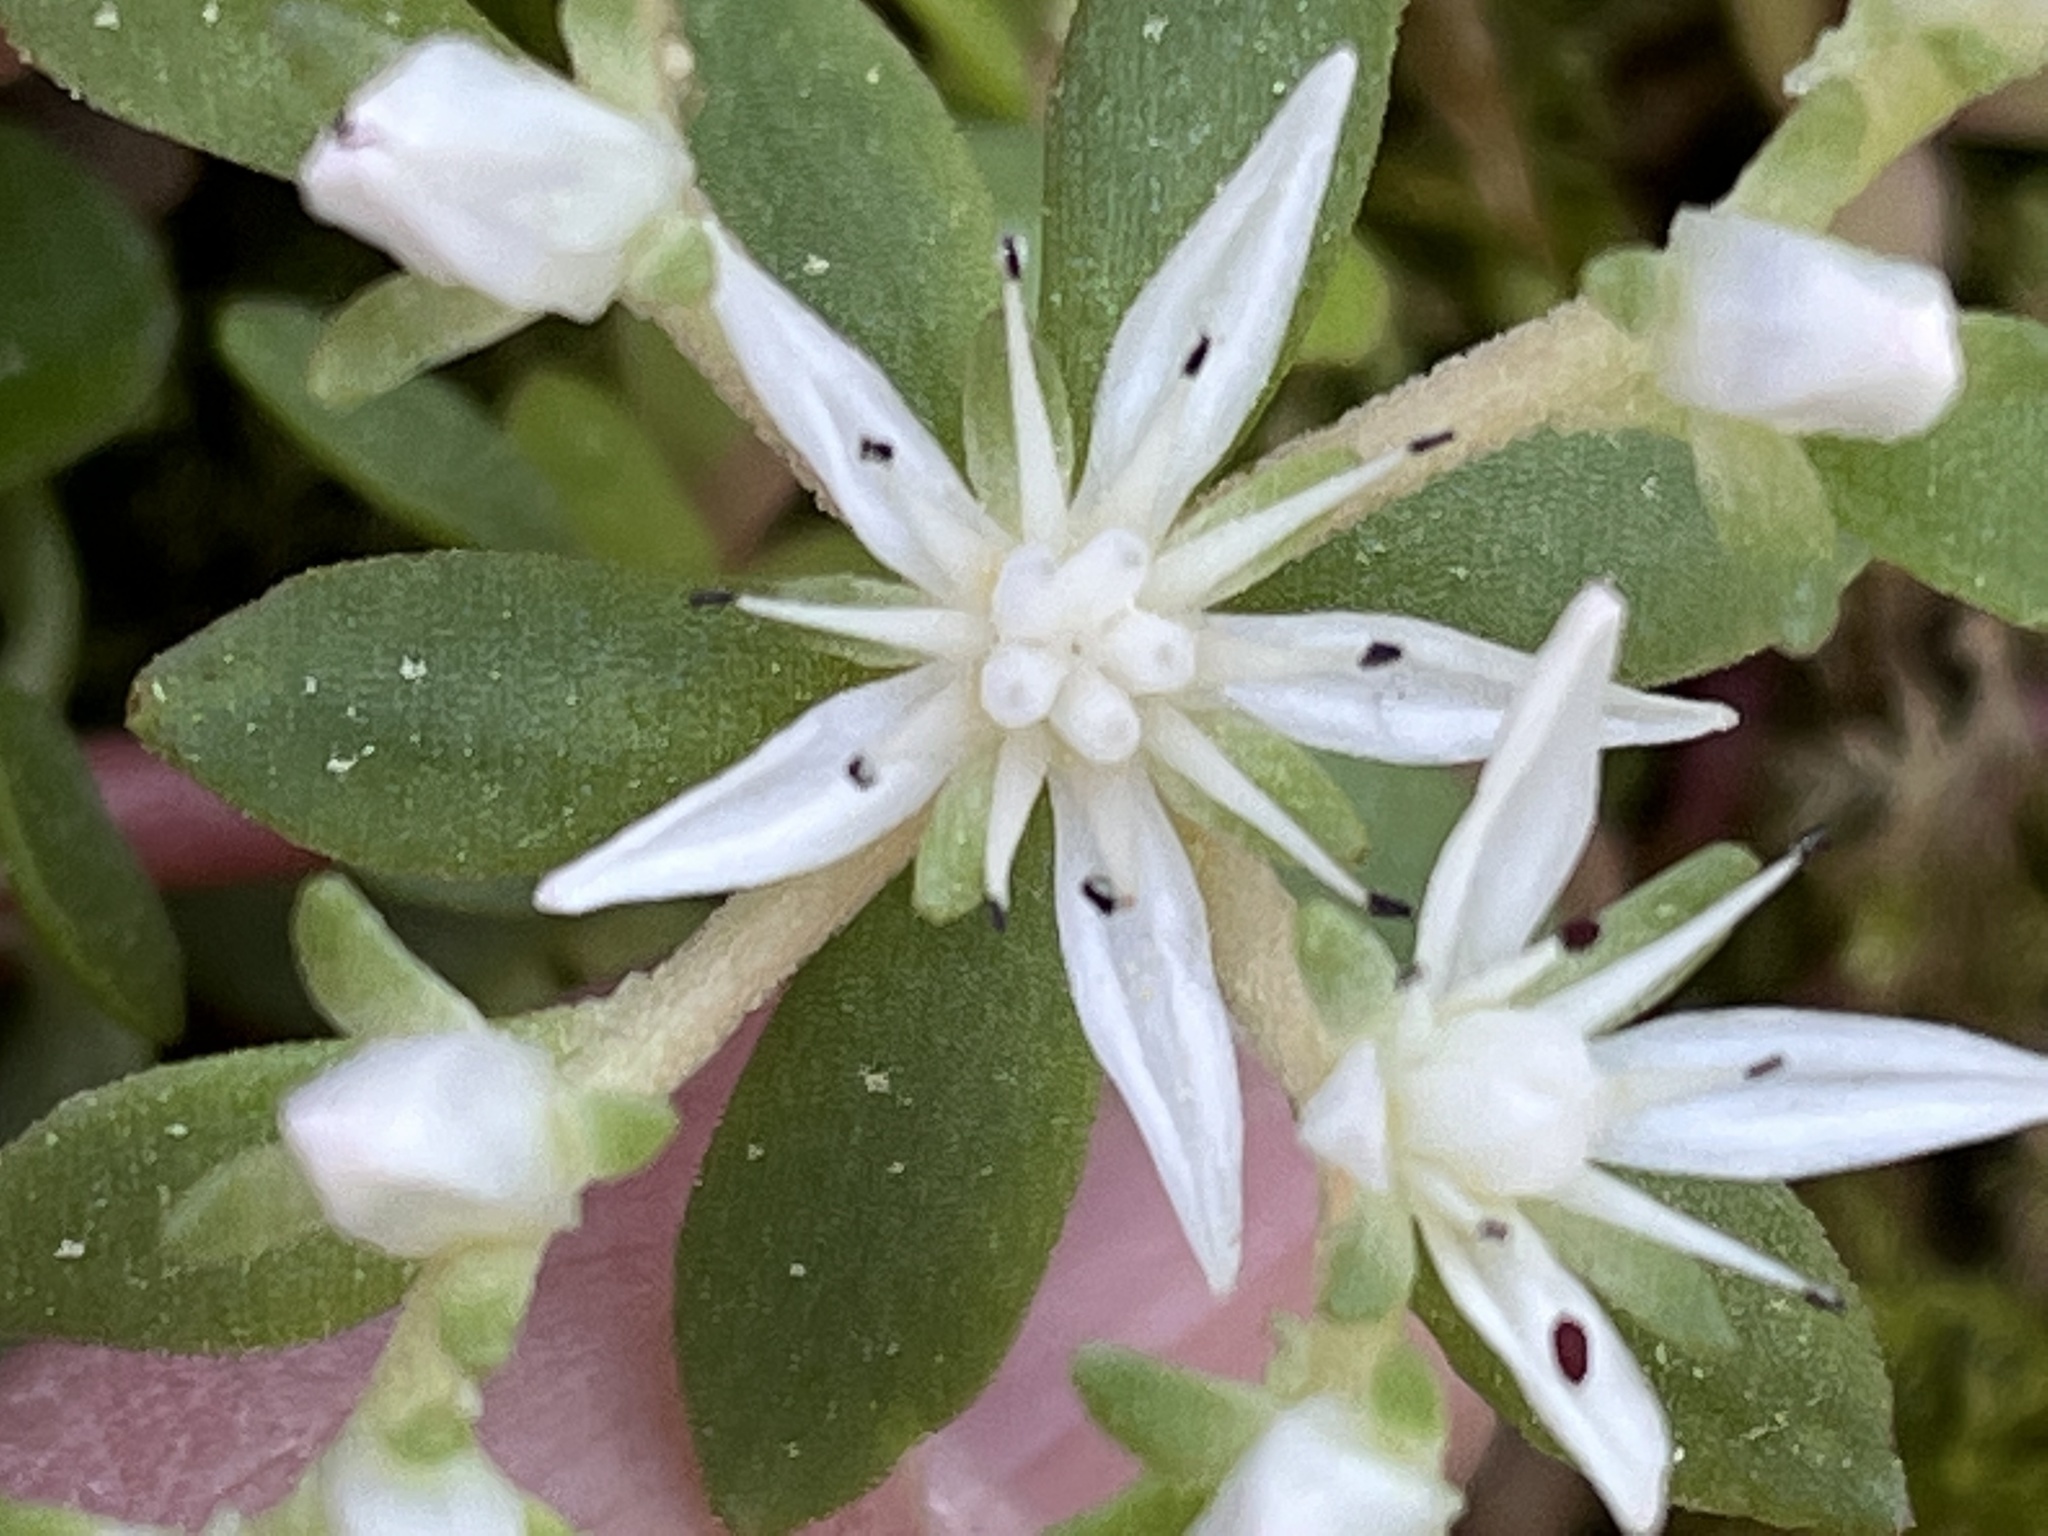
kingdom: Plantae
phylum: Tracheophyta
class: Magnoliopsida
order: Saxifragales
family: Crassulaceae
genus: Sedum
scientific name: Sedum ternatum
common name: Wild stonecrop
